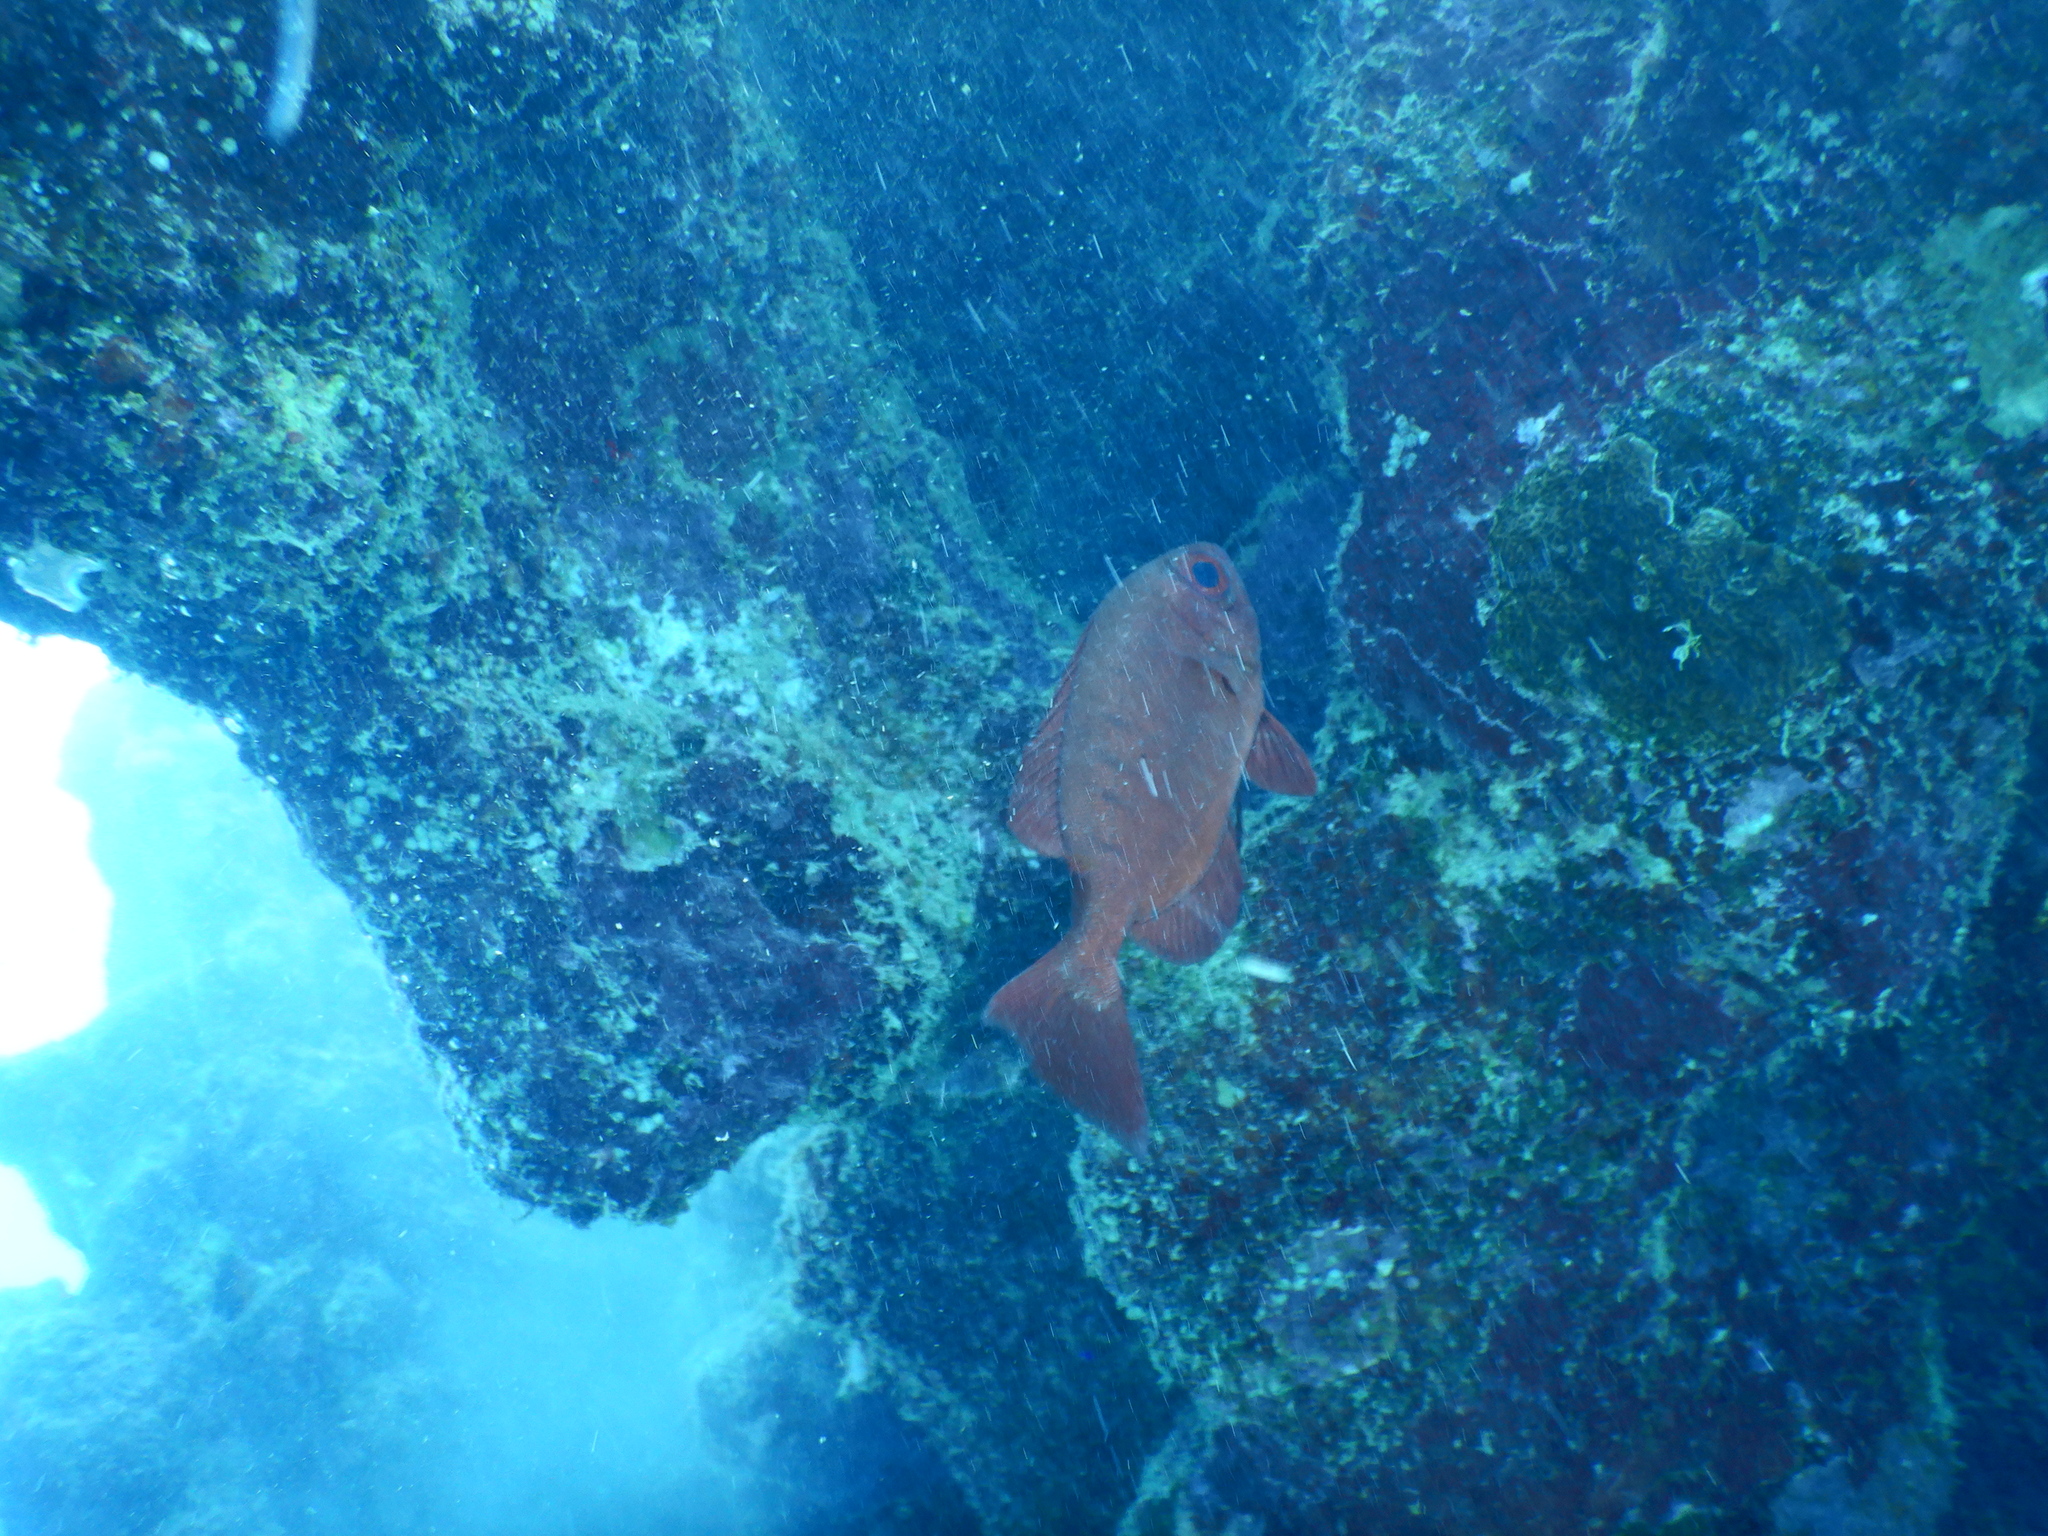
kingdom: Animalia
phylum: Chordata
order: Perciformes
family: Priacanthidae
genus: Priacanthus
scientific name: Priacanthus hamrur
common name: Moontail bullseye
